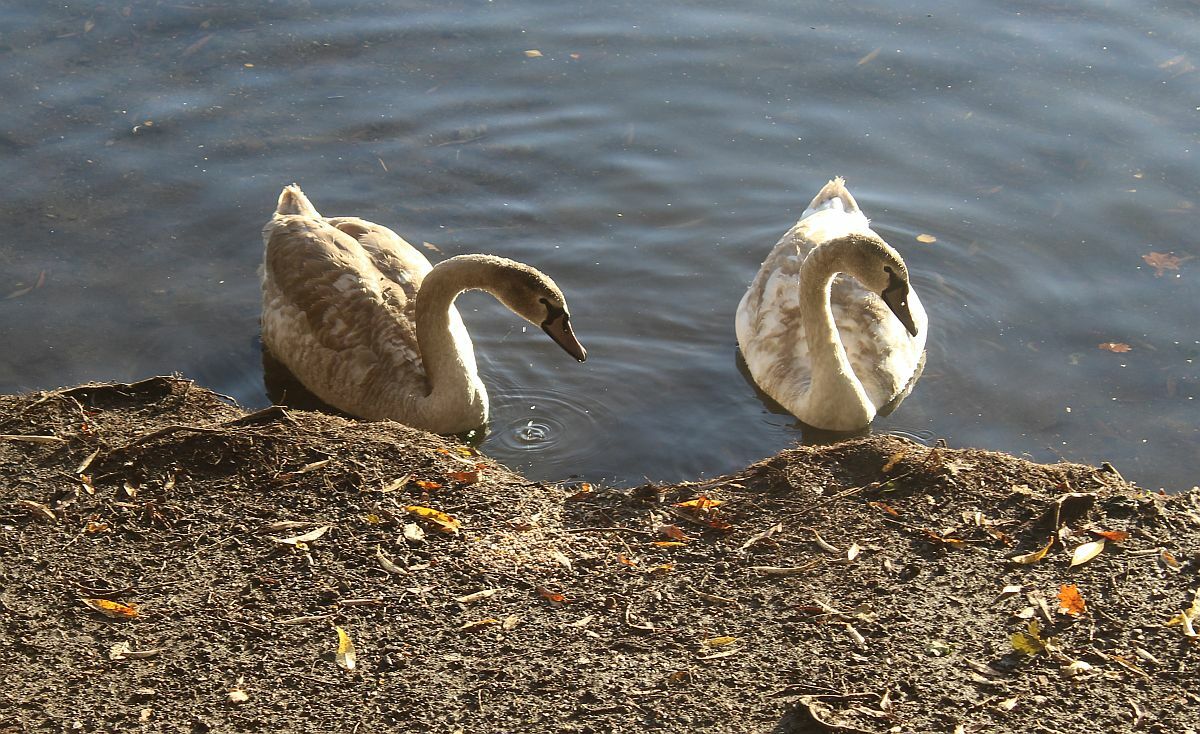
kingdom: Animalia
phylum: Chordata
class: Aves
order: Anseriformes
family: Anatidae
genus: Cygnus
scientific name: Cygnus olor
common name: Mute swan
